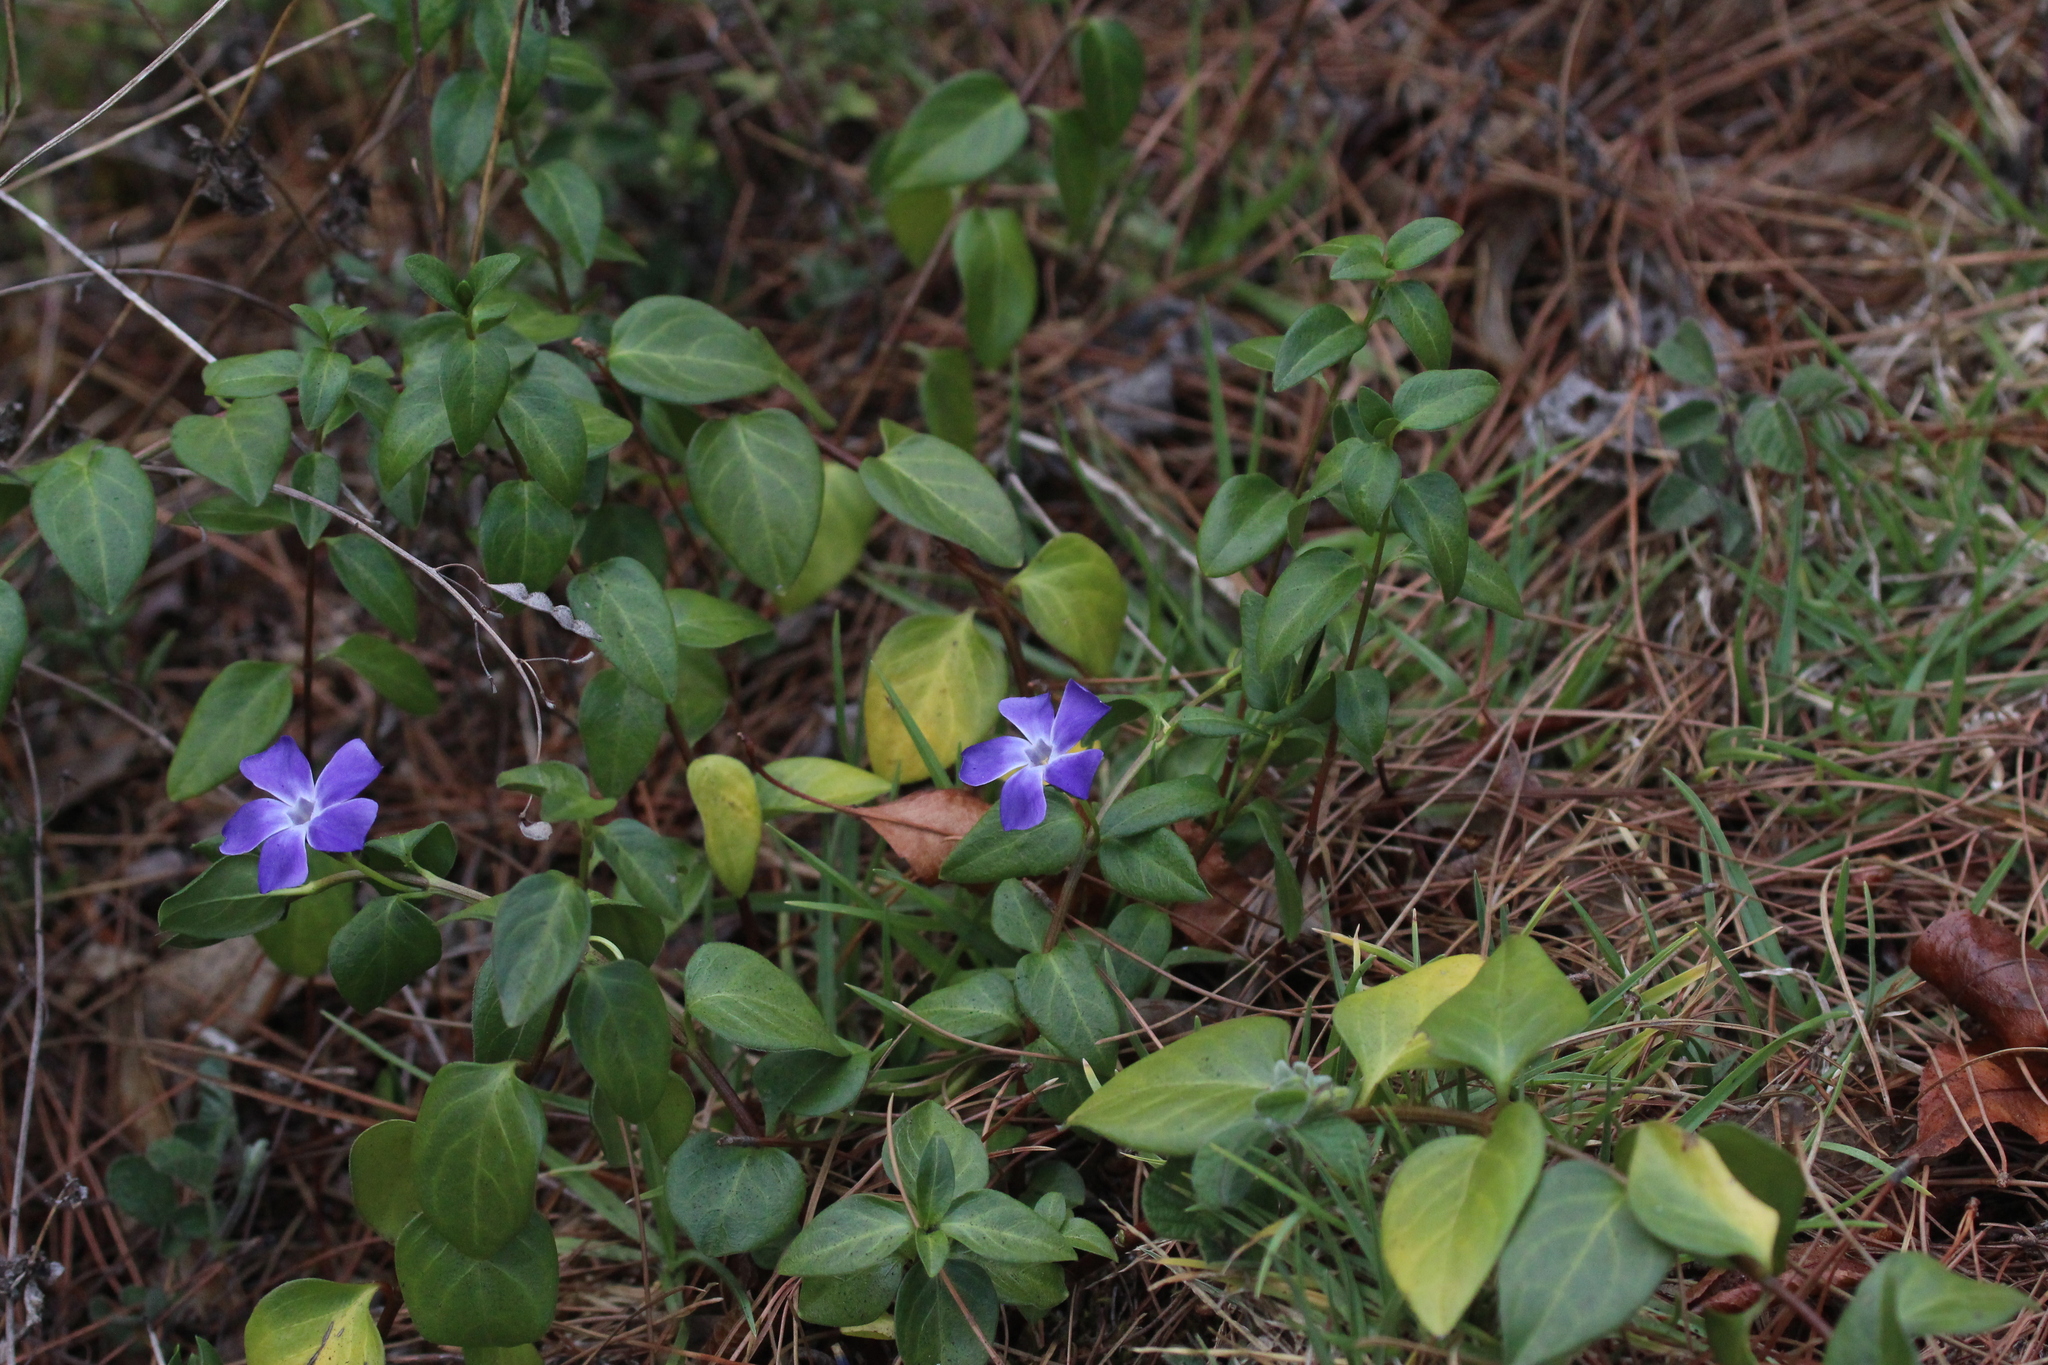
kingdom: Plantae
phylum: Tracheophyta
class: Magnoliopsida
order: Gentianales
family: Apocynaceae
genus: Vinca
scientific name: Vinca major
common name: Greater periwinkle
